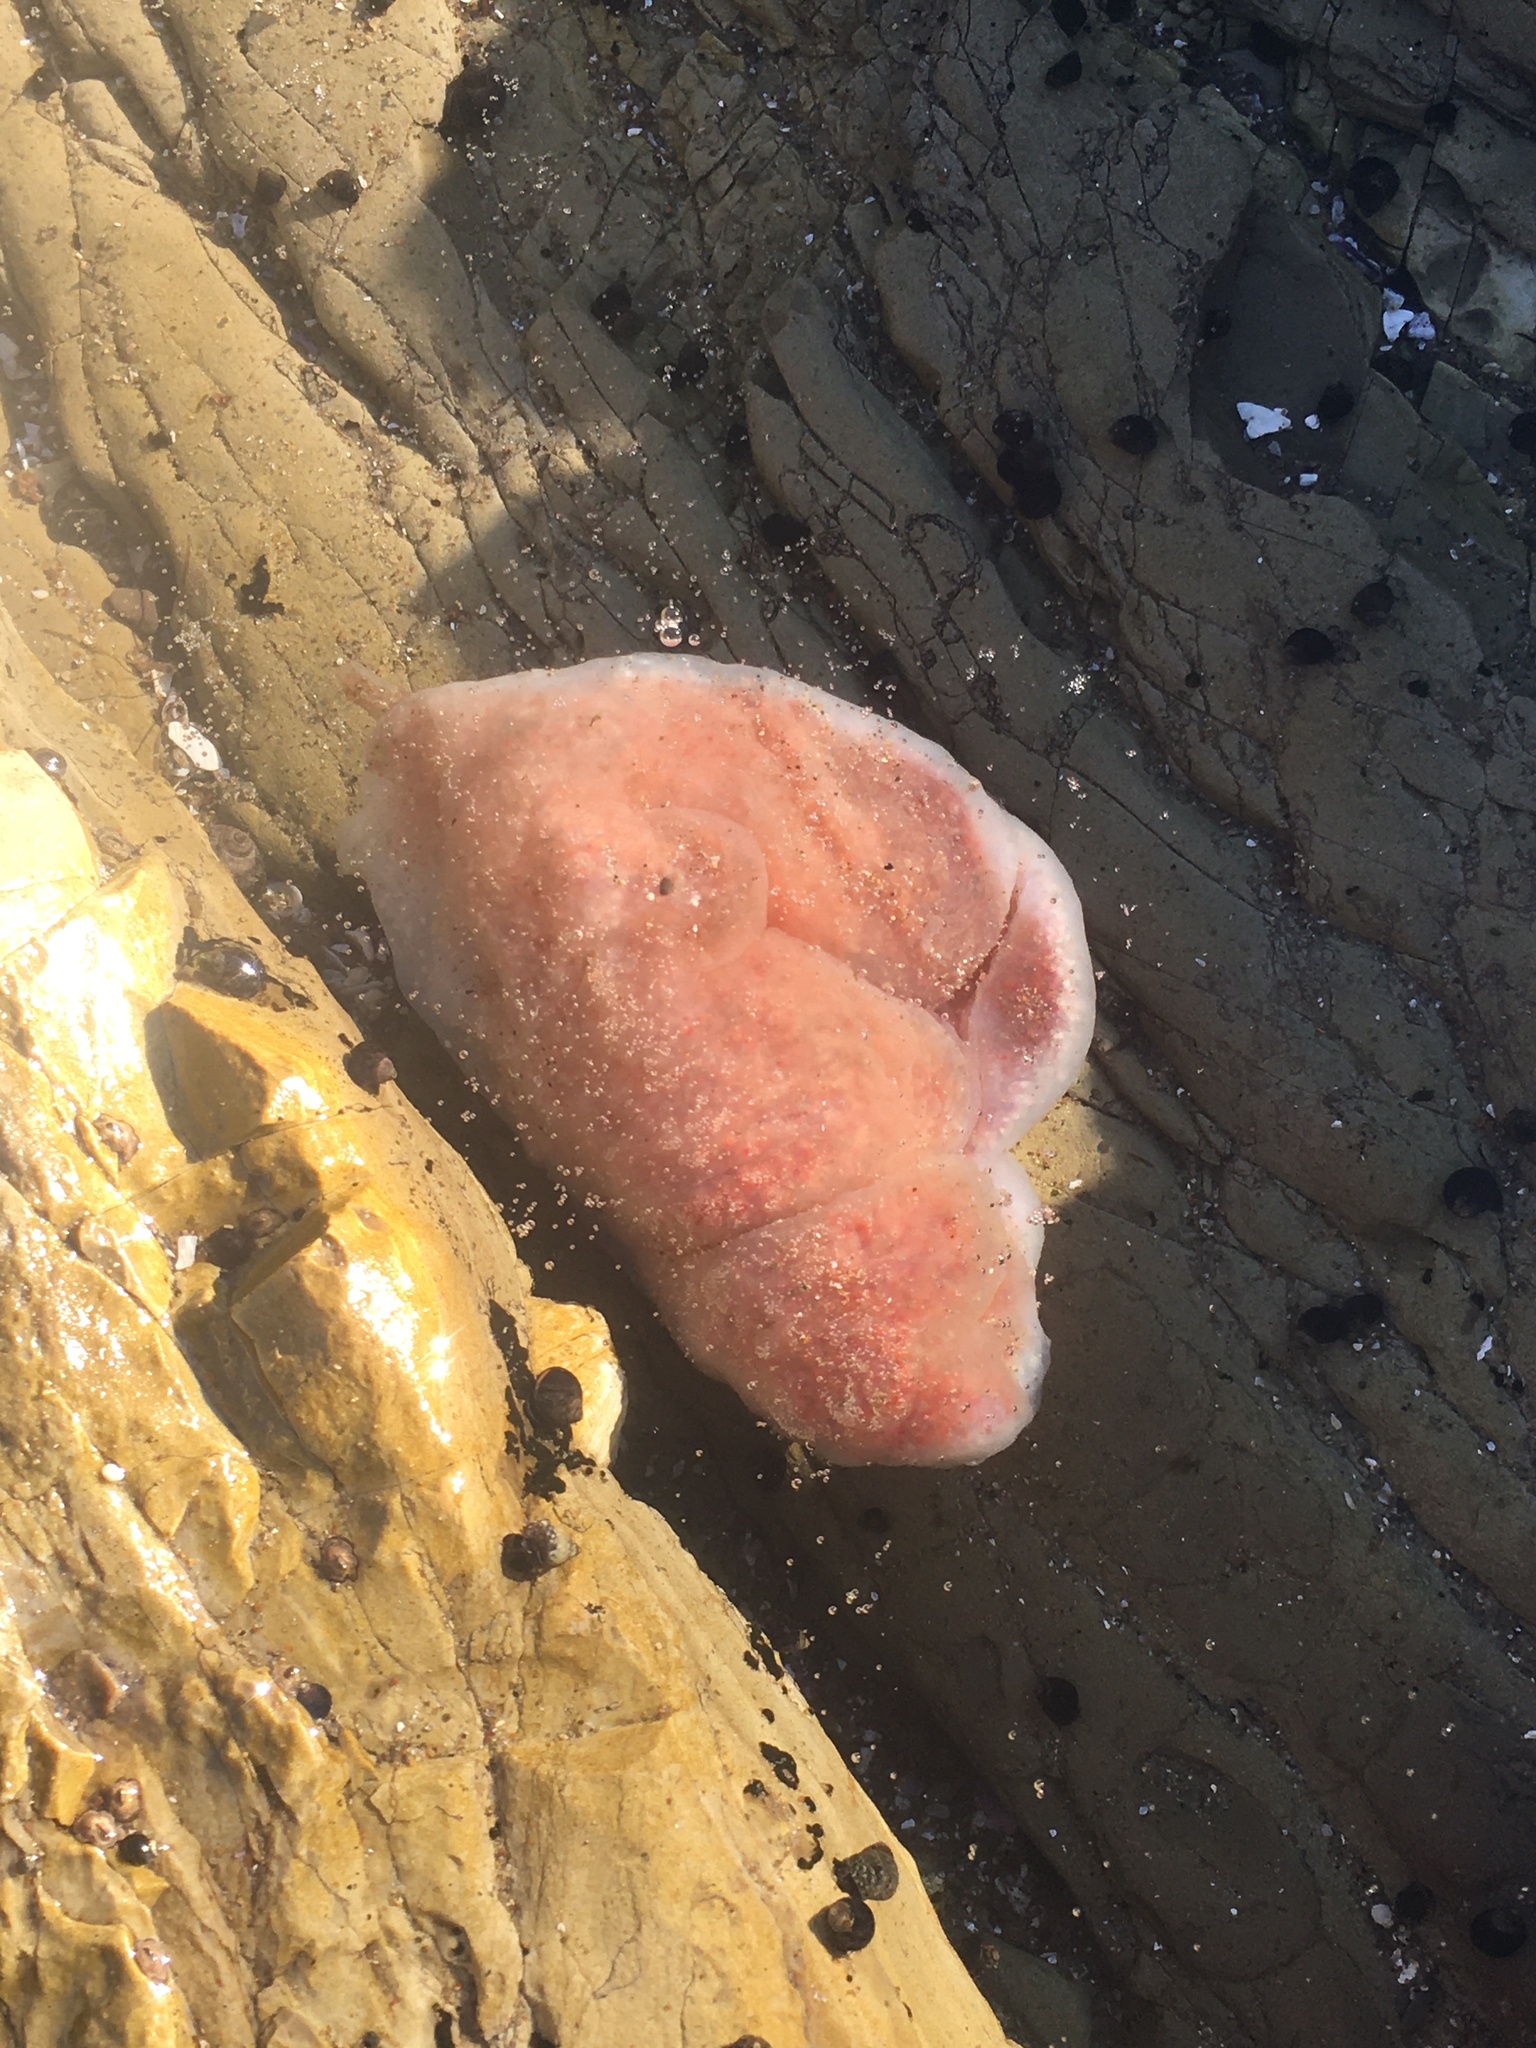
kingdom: Animalia
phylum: Chordata
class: Ascidiacea
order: Aplousobranchia
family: Polyclinidae
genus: Aplidium
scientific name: Aplidium californicum
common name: Sea pork
